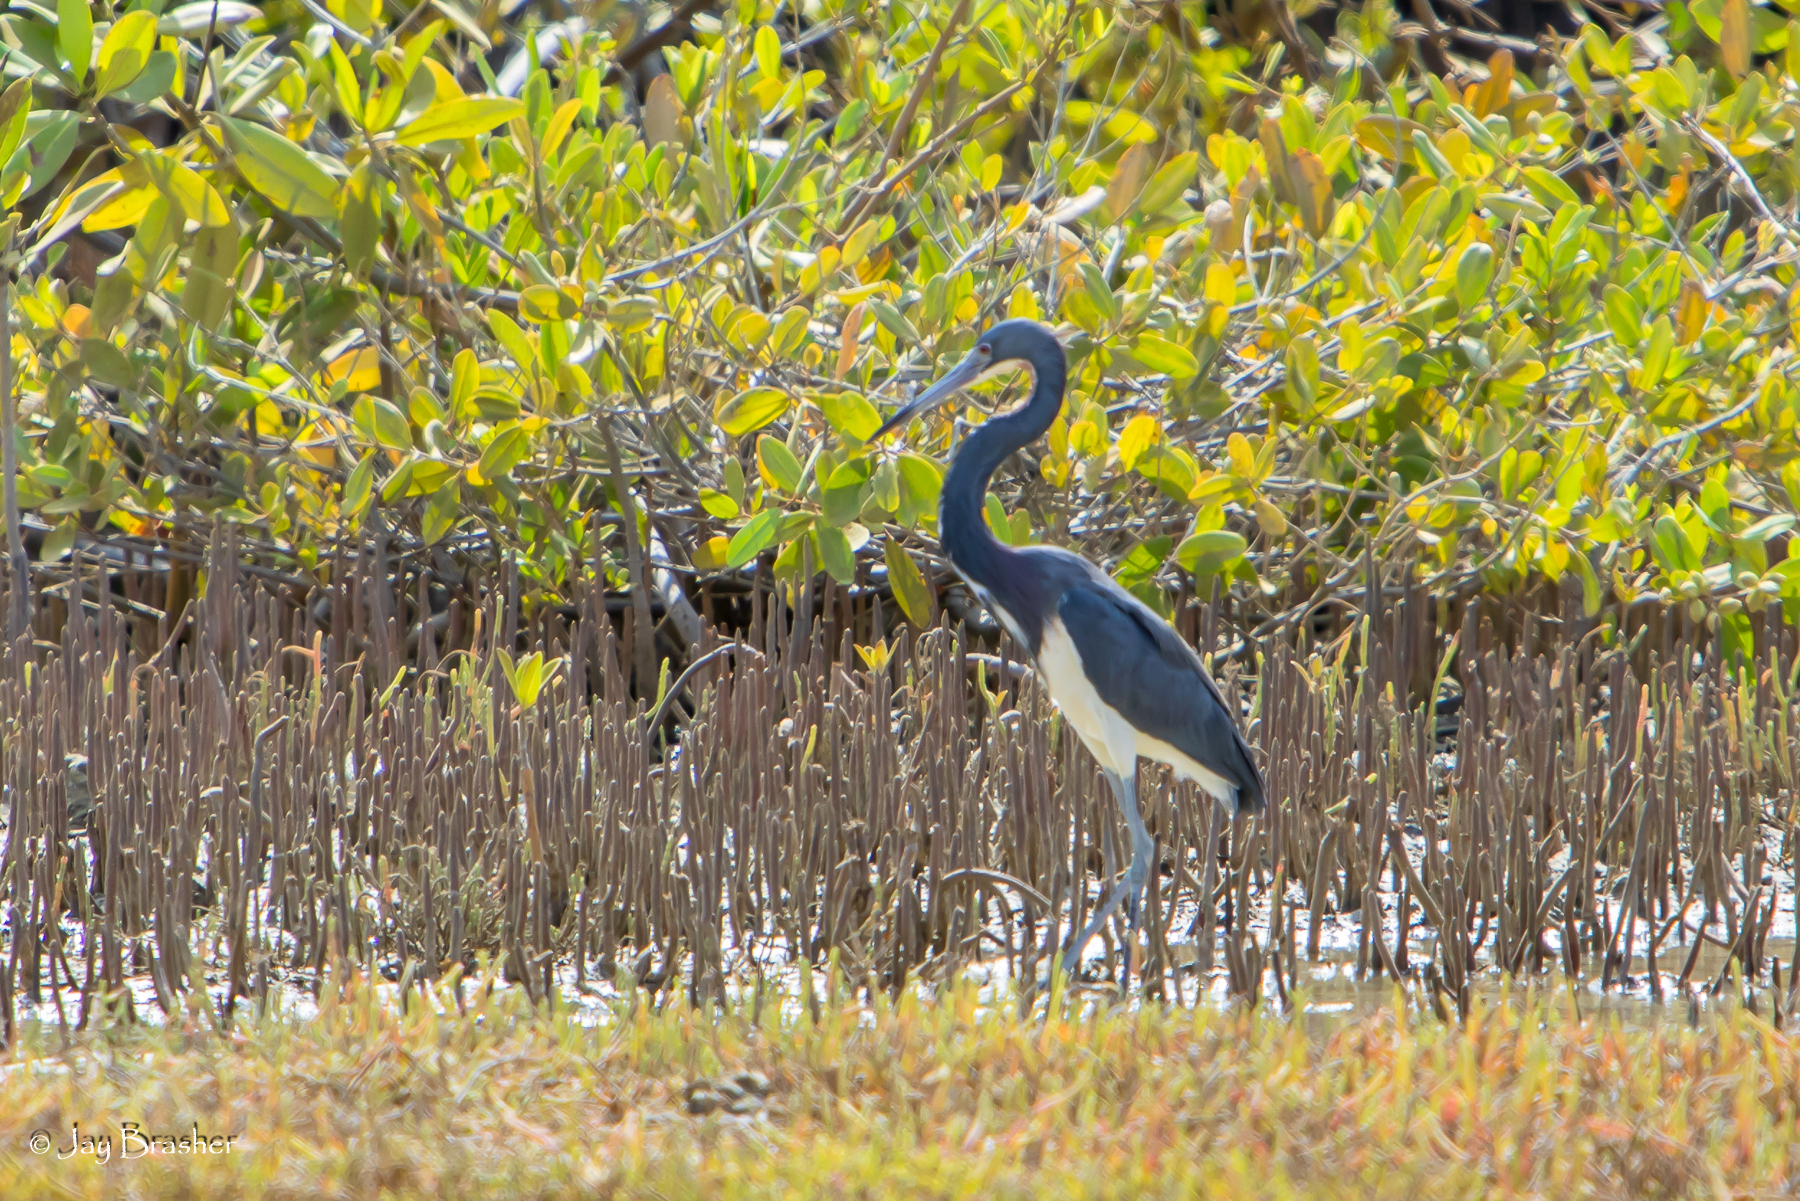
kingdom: Animalia
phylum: Chordata
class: Aves
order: Pelecaniformes
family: Ardeidae
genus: Egretta
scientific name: Egretta tricolor
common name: Tricolored heron
